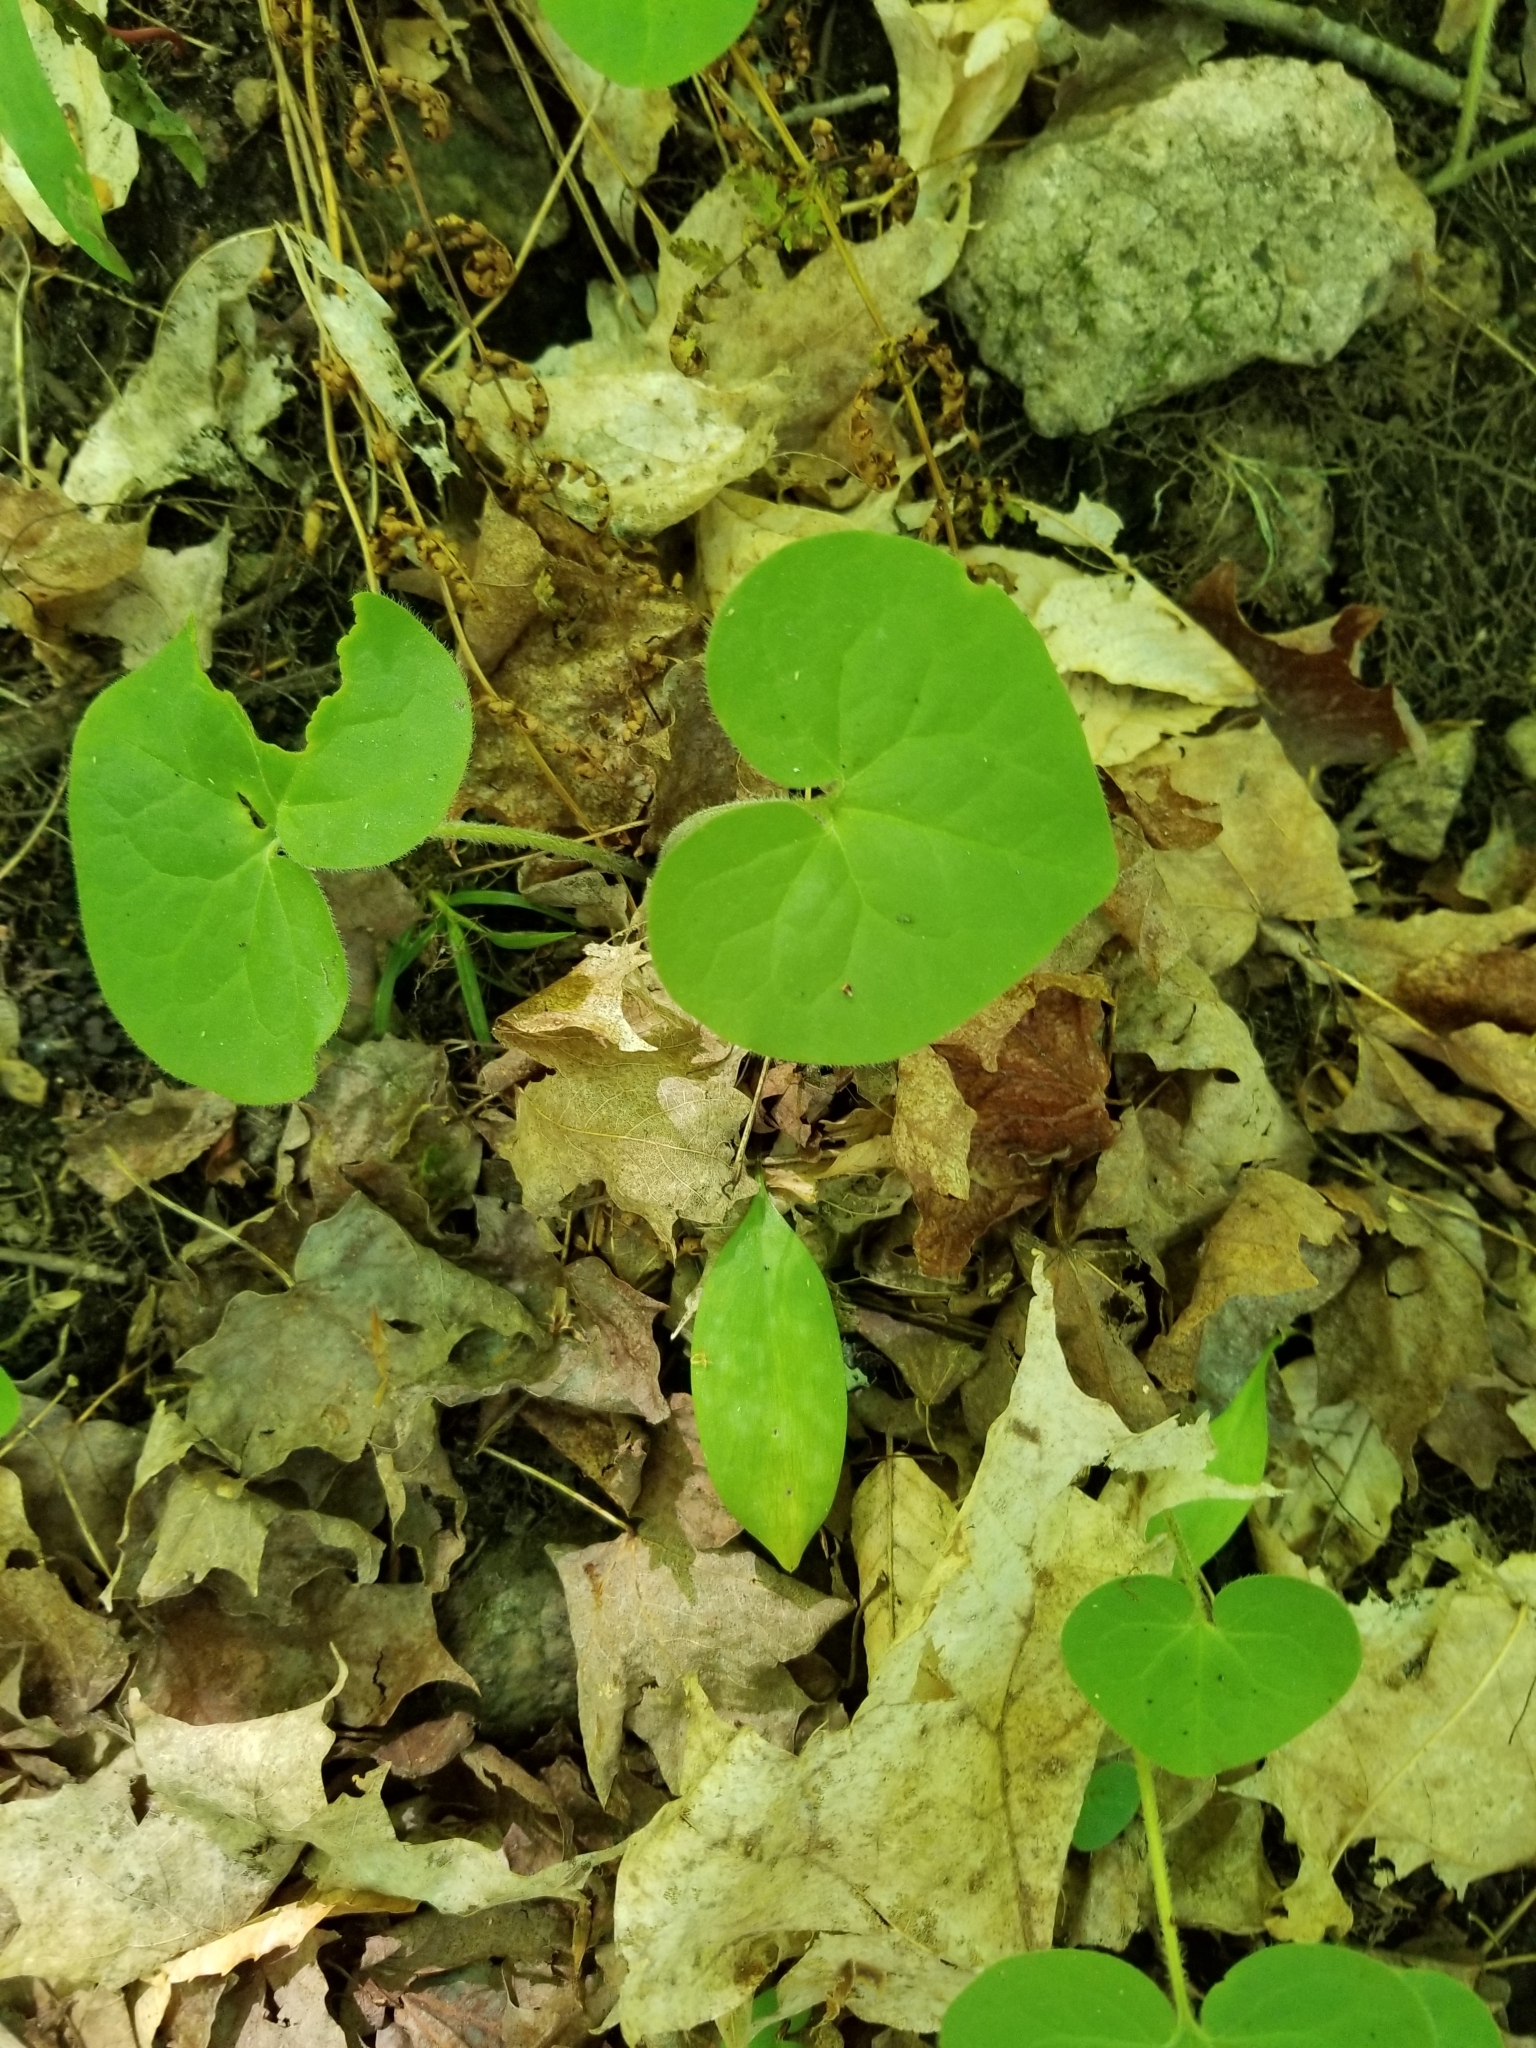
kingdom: Plantae
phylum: Tracheophyta
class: Magnoliopsida
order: Piperales
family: Aristolochiaceae
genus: Asarum
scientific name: Asarum canadense
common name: Wild ginger
